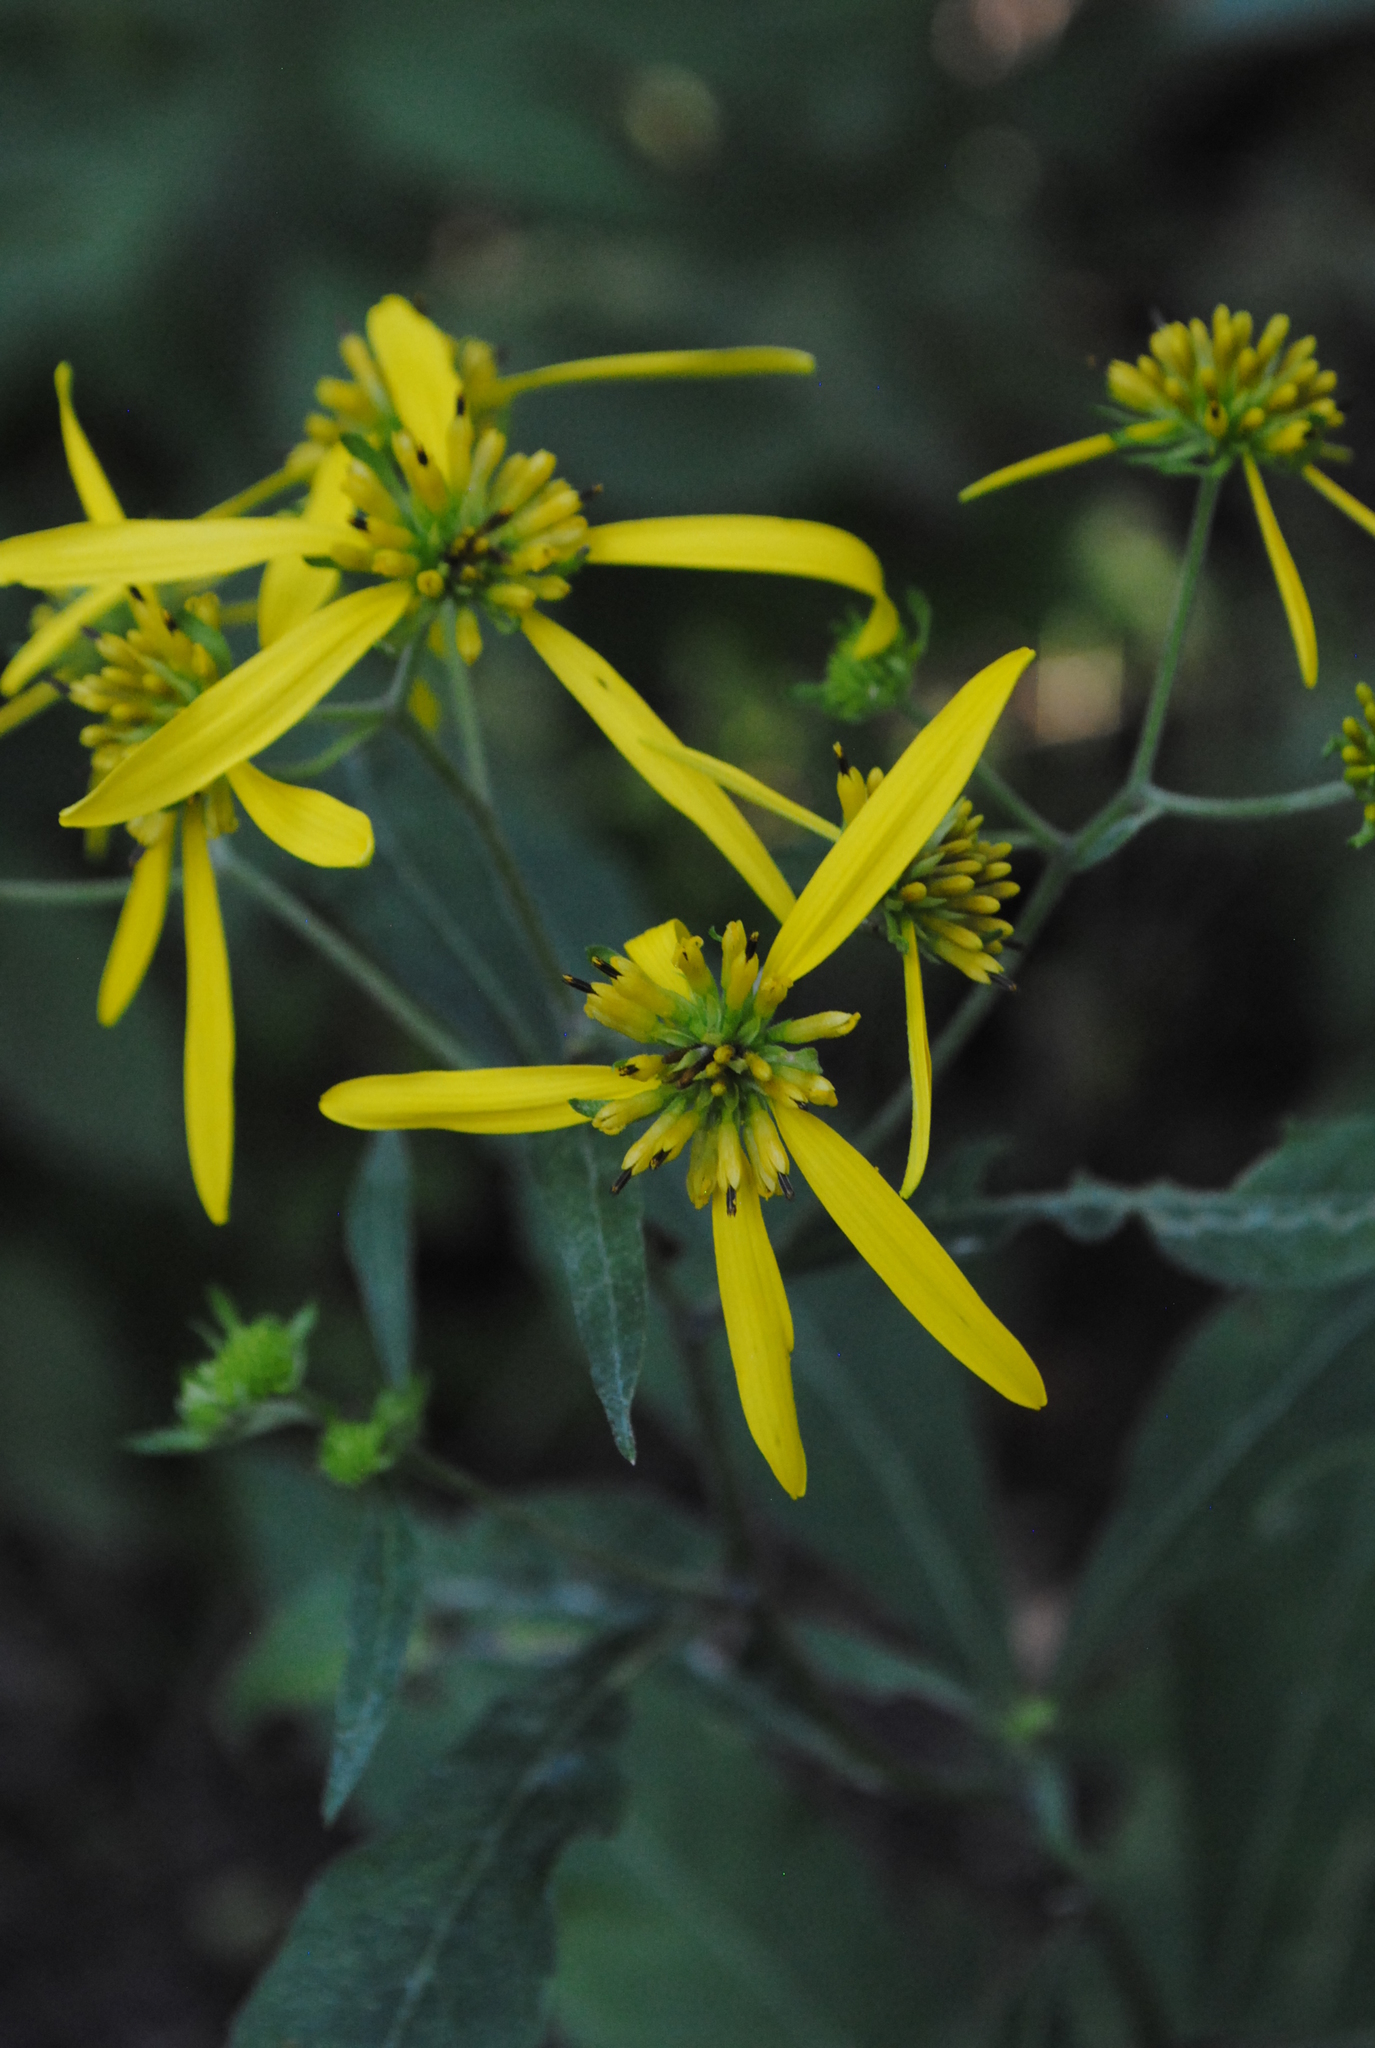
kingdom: Plantae
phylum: Tracheophyta
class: Magnoliopsida
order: Asterales
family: Asteraceae
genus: Verbesina
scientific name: Verbesina alternifolia
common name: Wingstem
